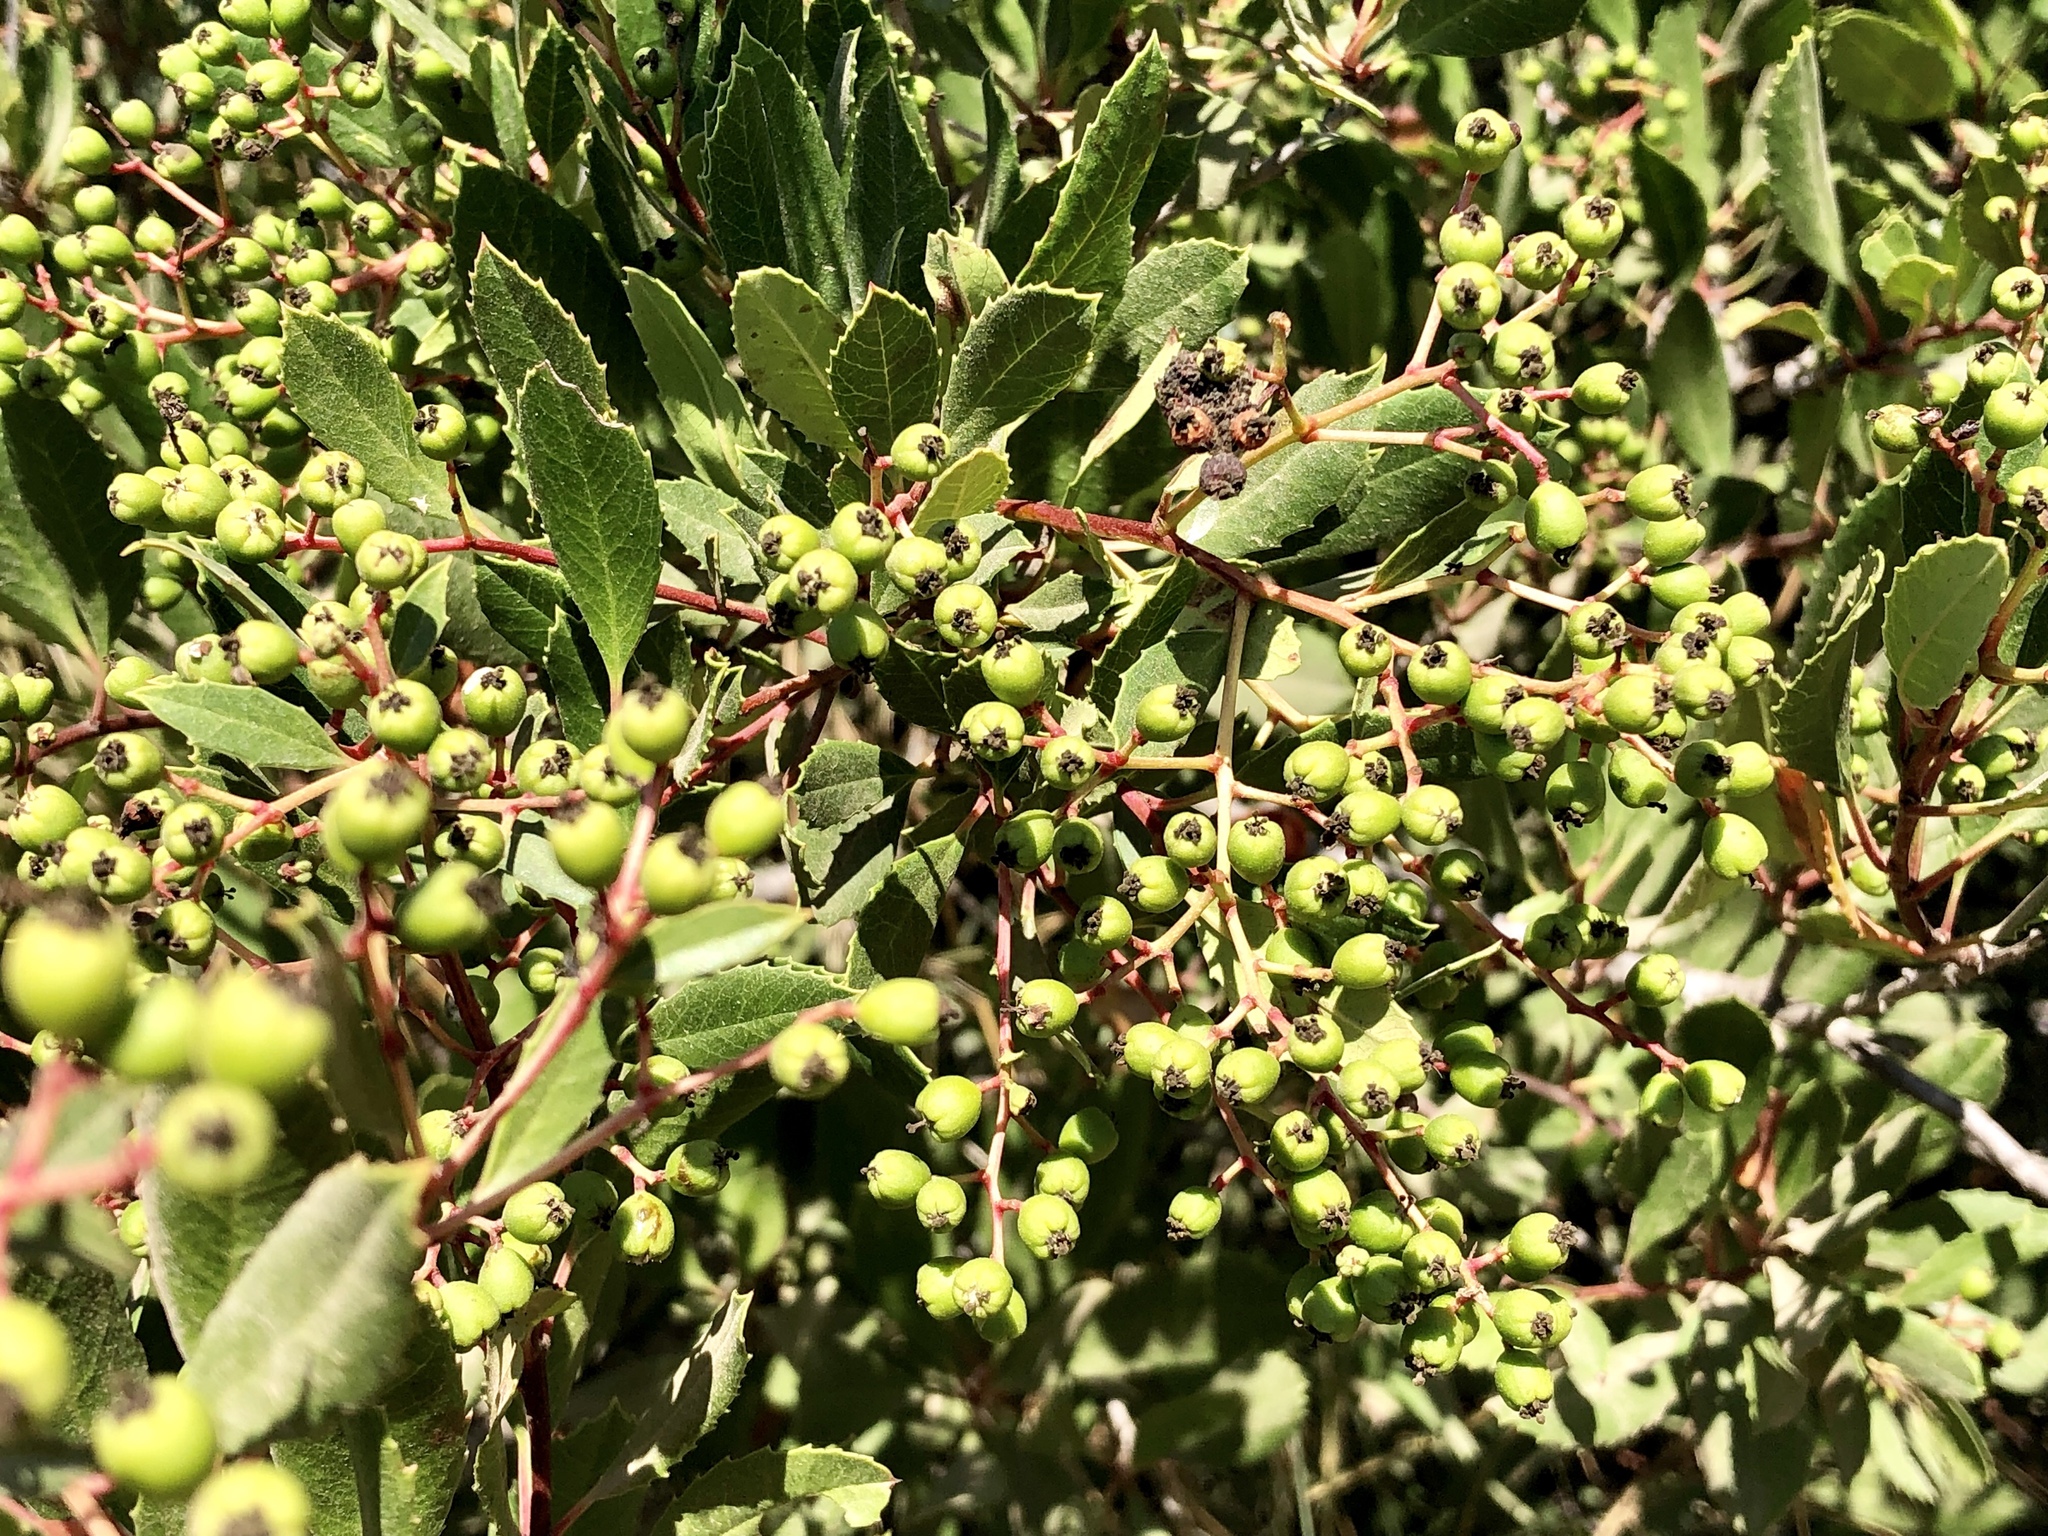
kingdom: Plantae
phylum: Tracheophyta
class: Magnoliopsida
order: Rosales
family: Rosaceae
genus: Heteromeles
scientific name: Heteromeles arbutifolia
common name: California-holly
